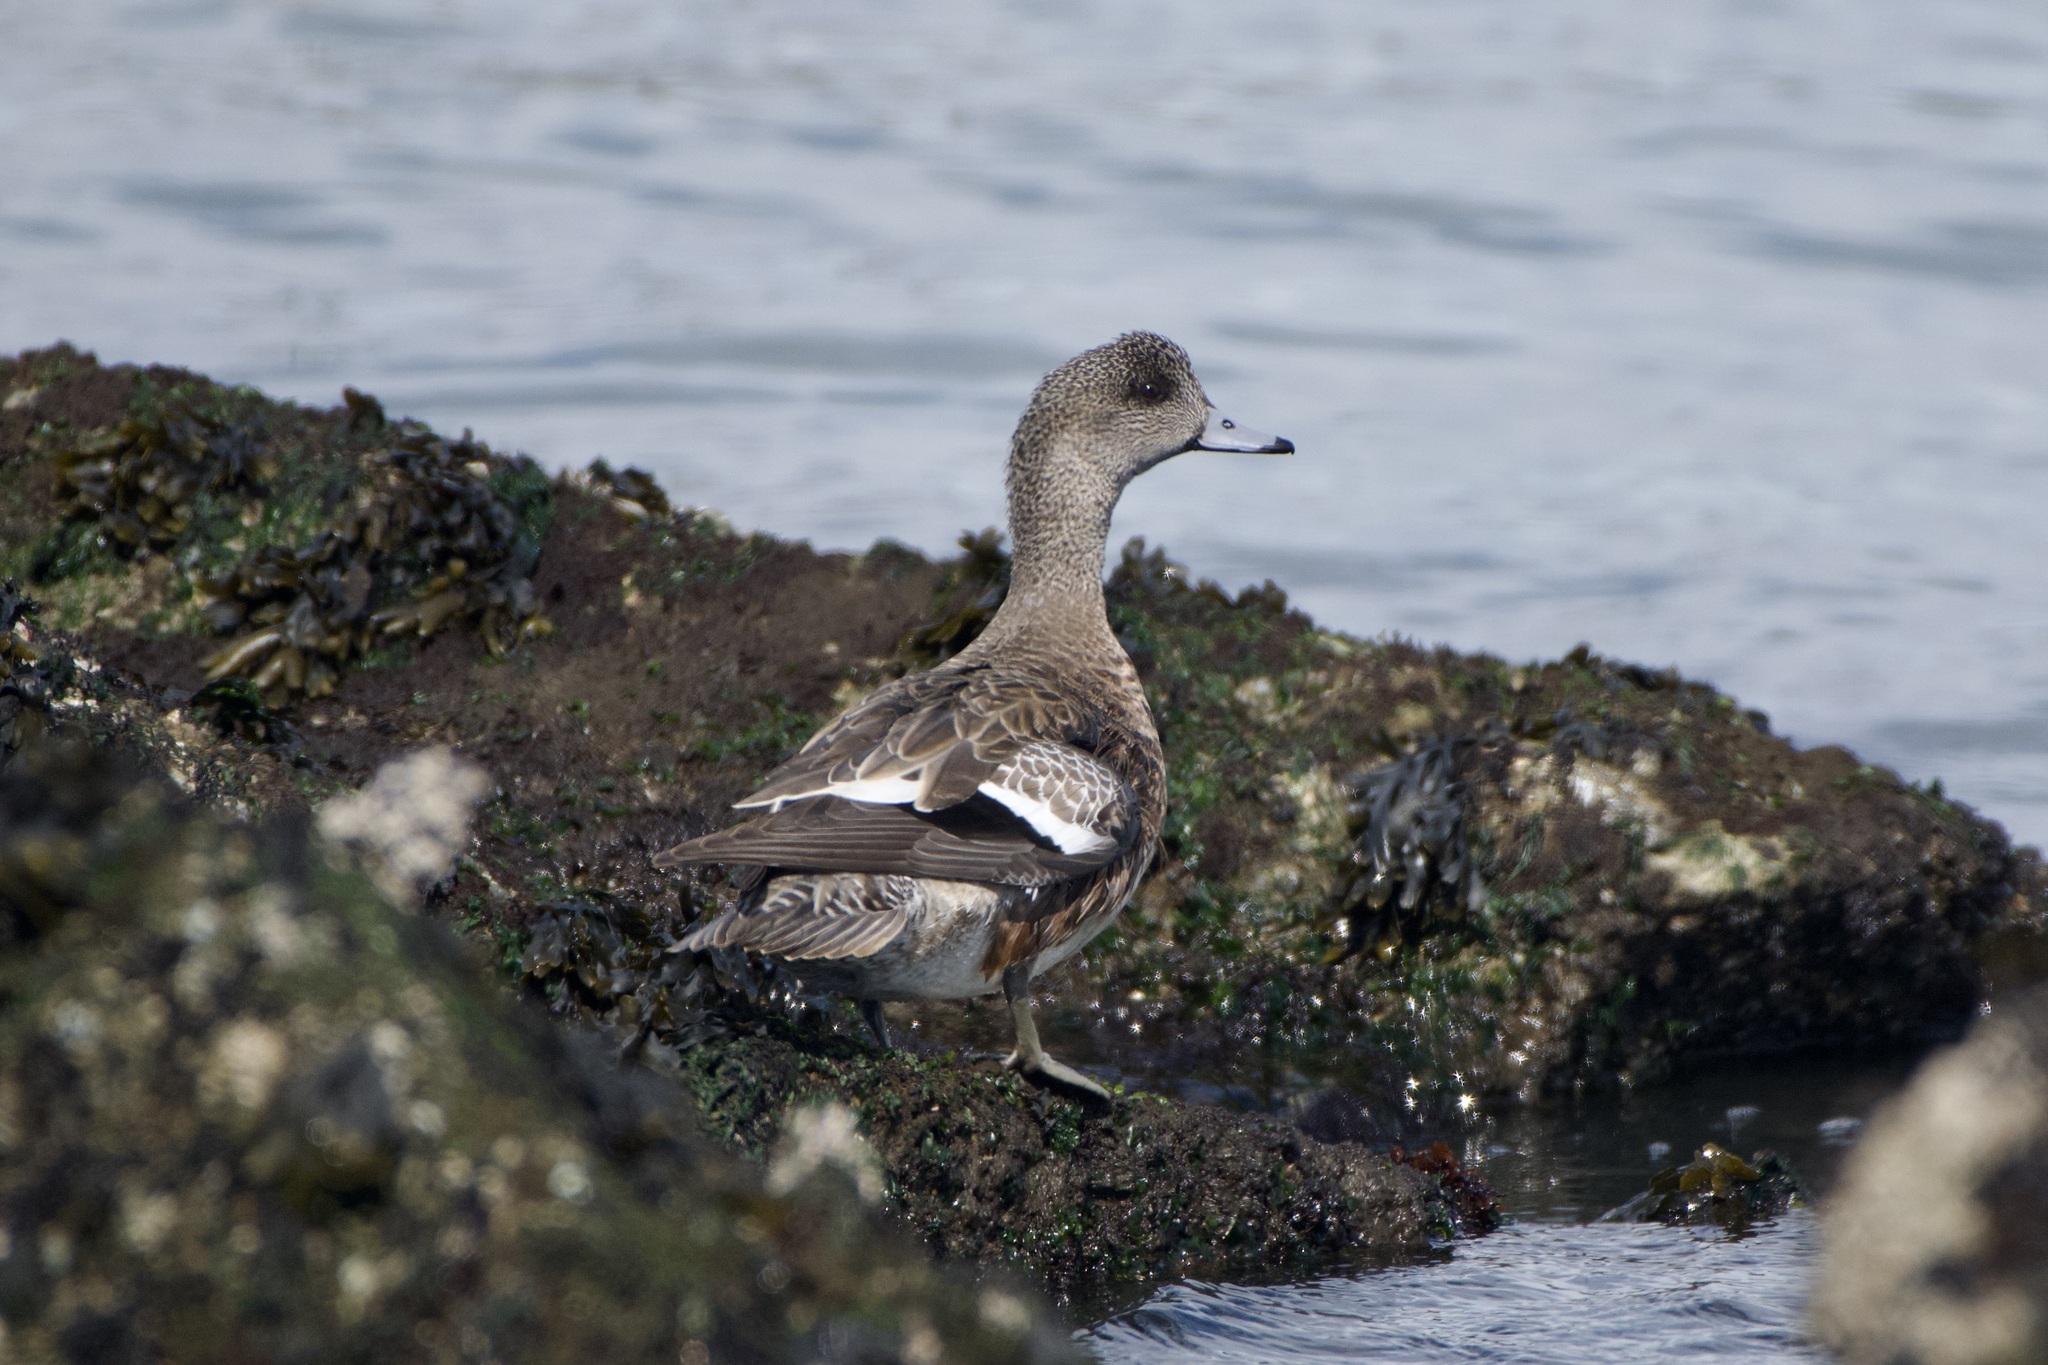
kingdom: Animalia
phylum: Chordata
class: Aves
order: Anseriformes
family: Anatidae
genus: Mareca
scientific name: Mareca americana
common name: American wigeon
